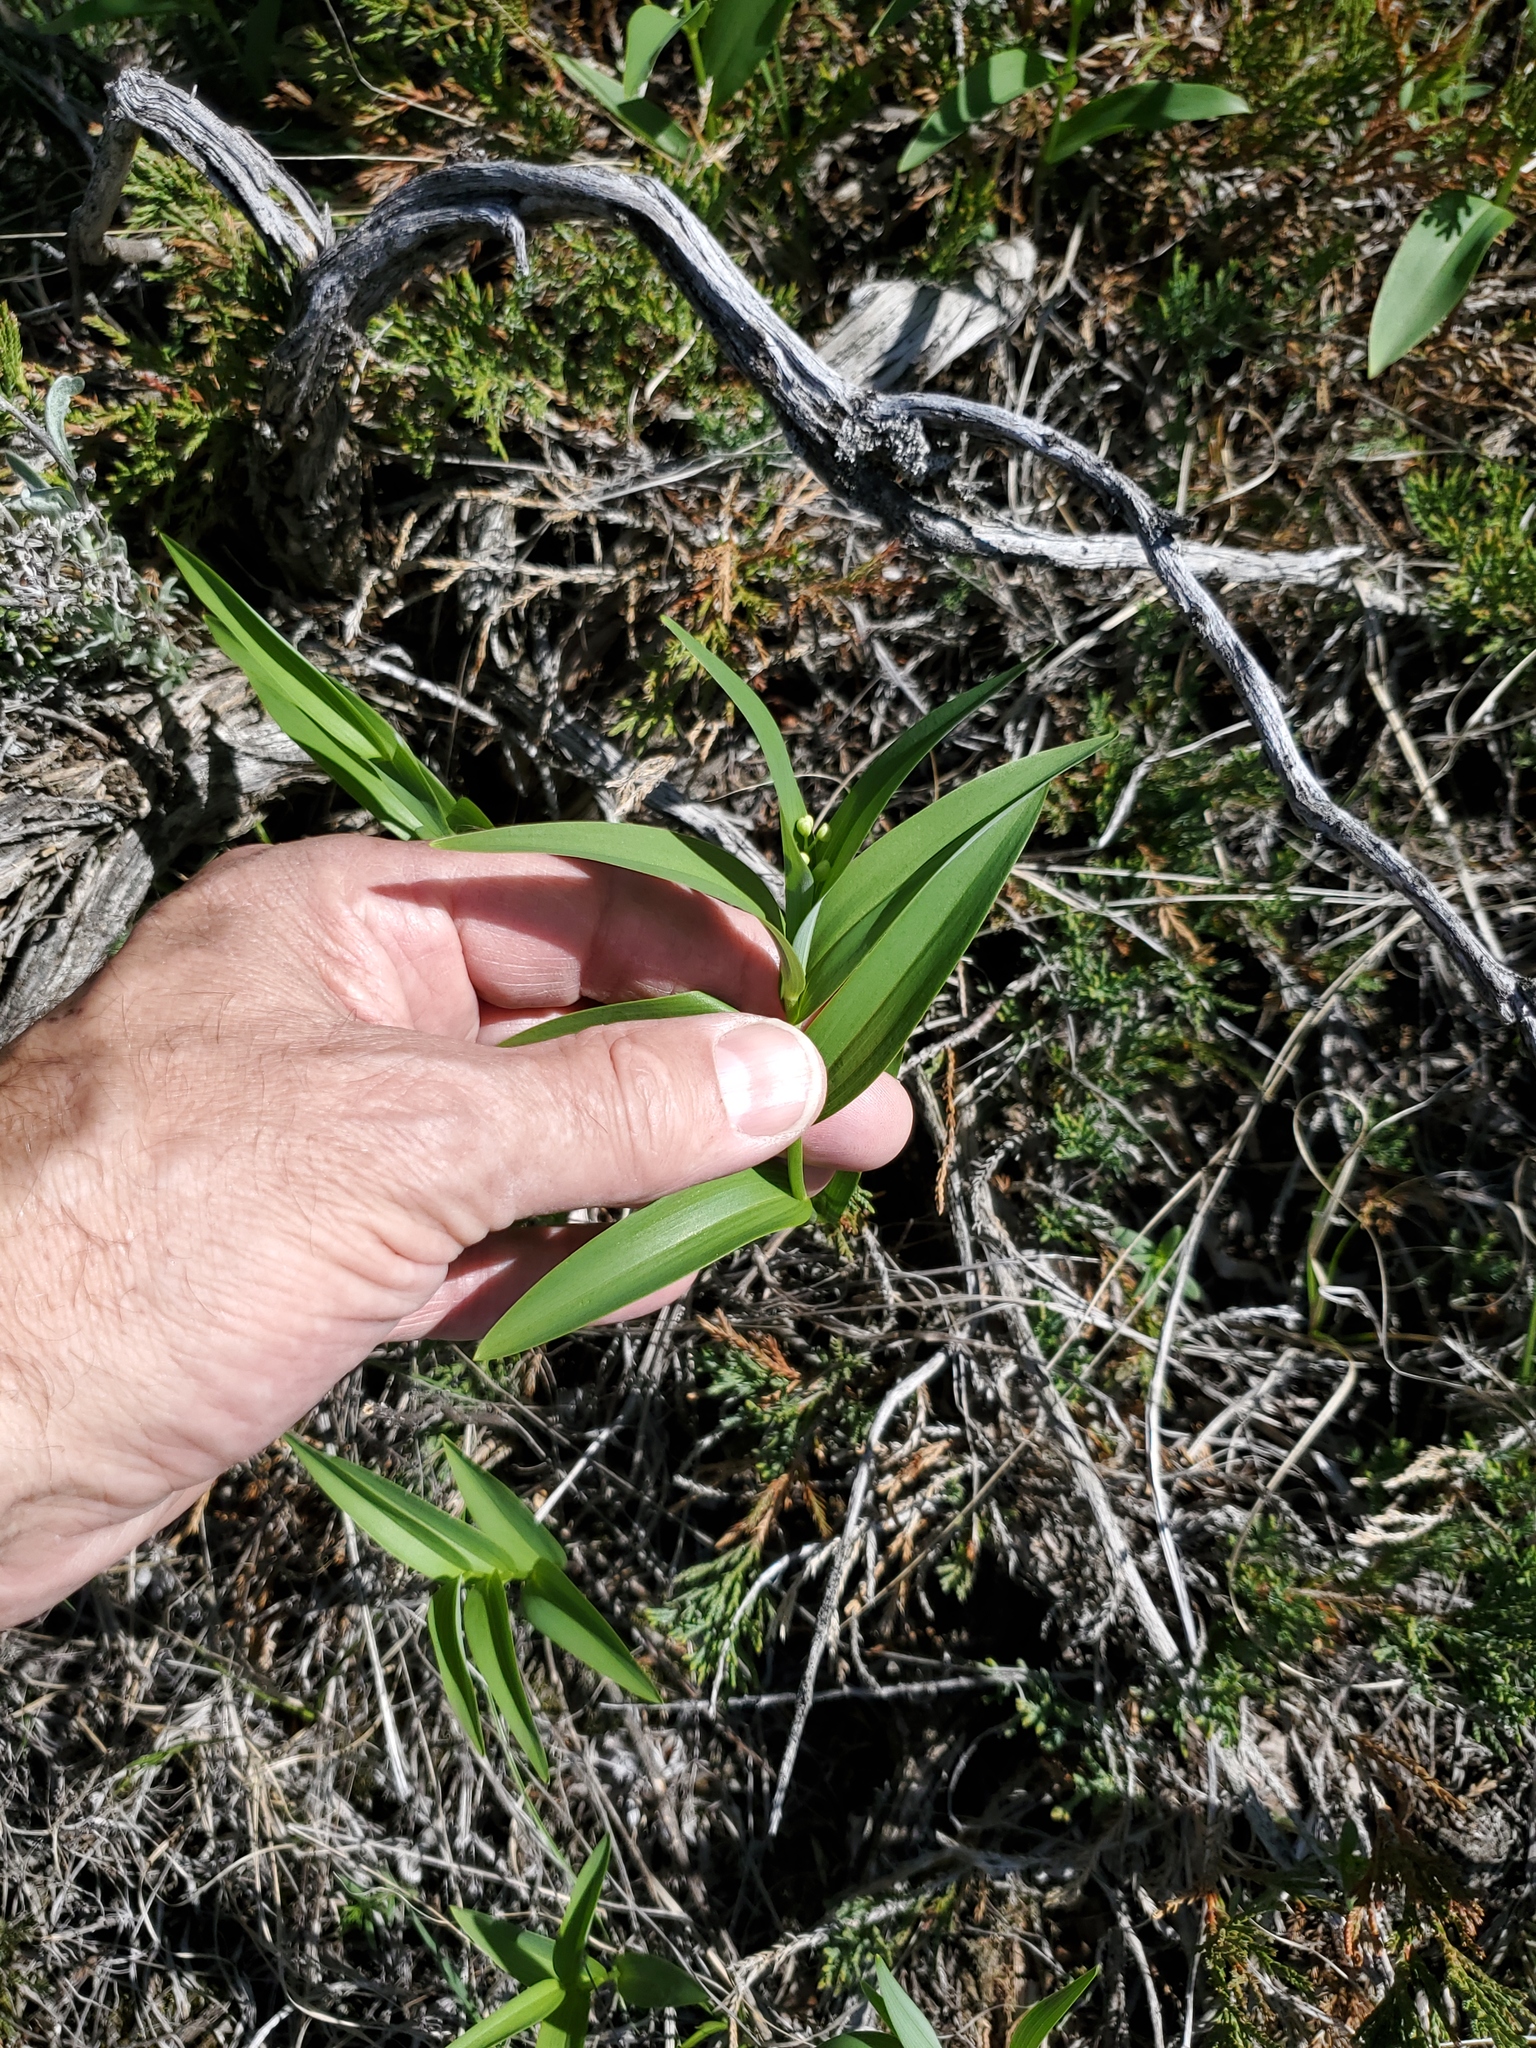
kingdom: Plantae
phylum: Tracheophyta
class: Liliopsida
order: Asparagales
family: Asparagaceae
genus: Maianthemum
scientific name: Maianthemum stellatum
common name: Little false solomon's seal
